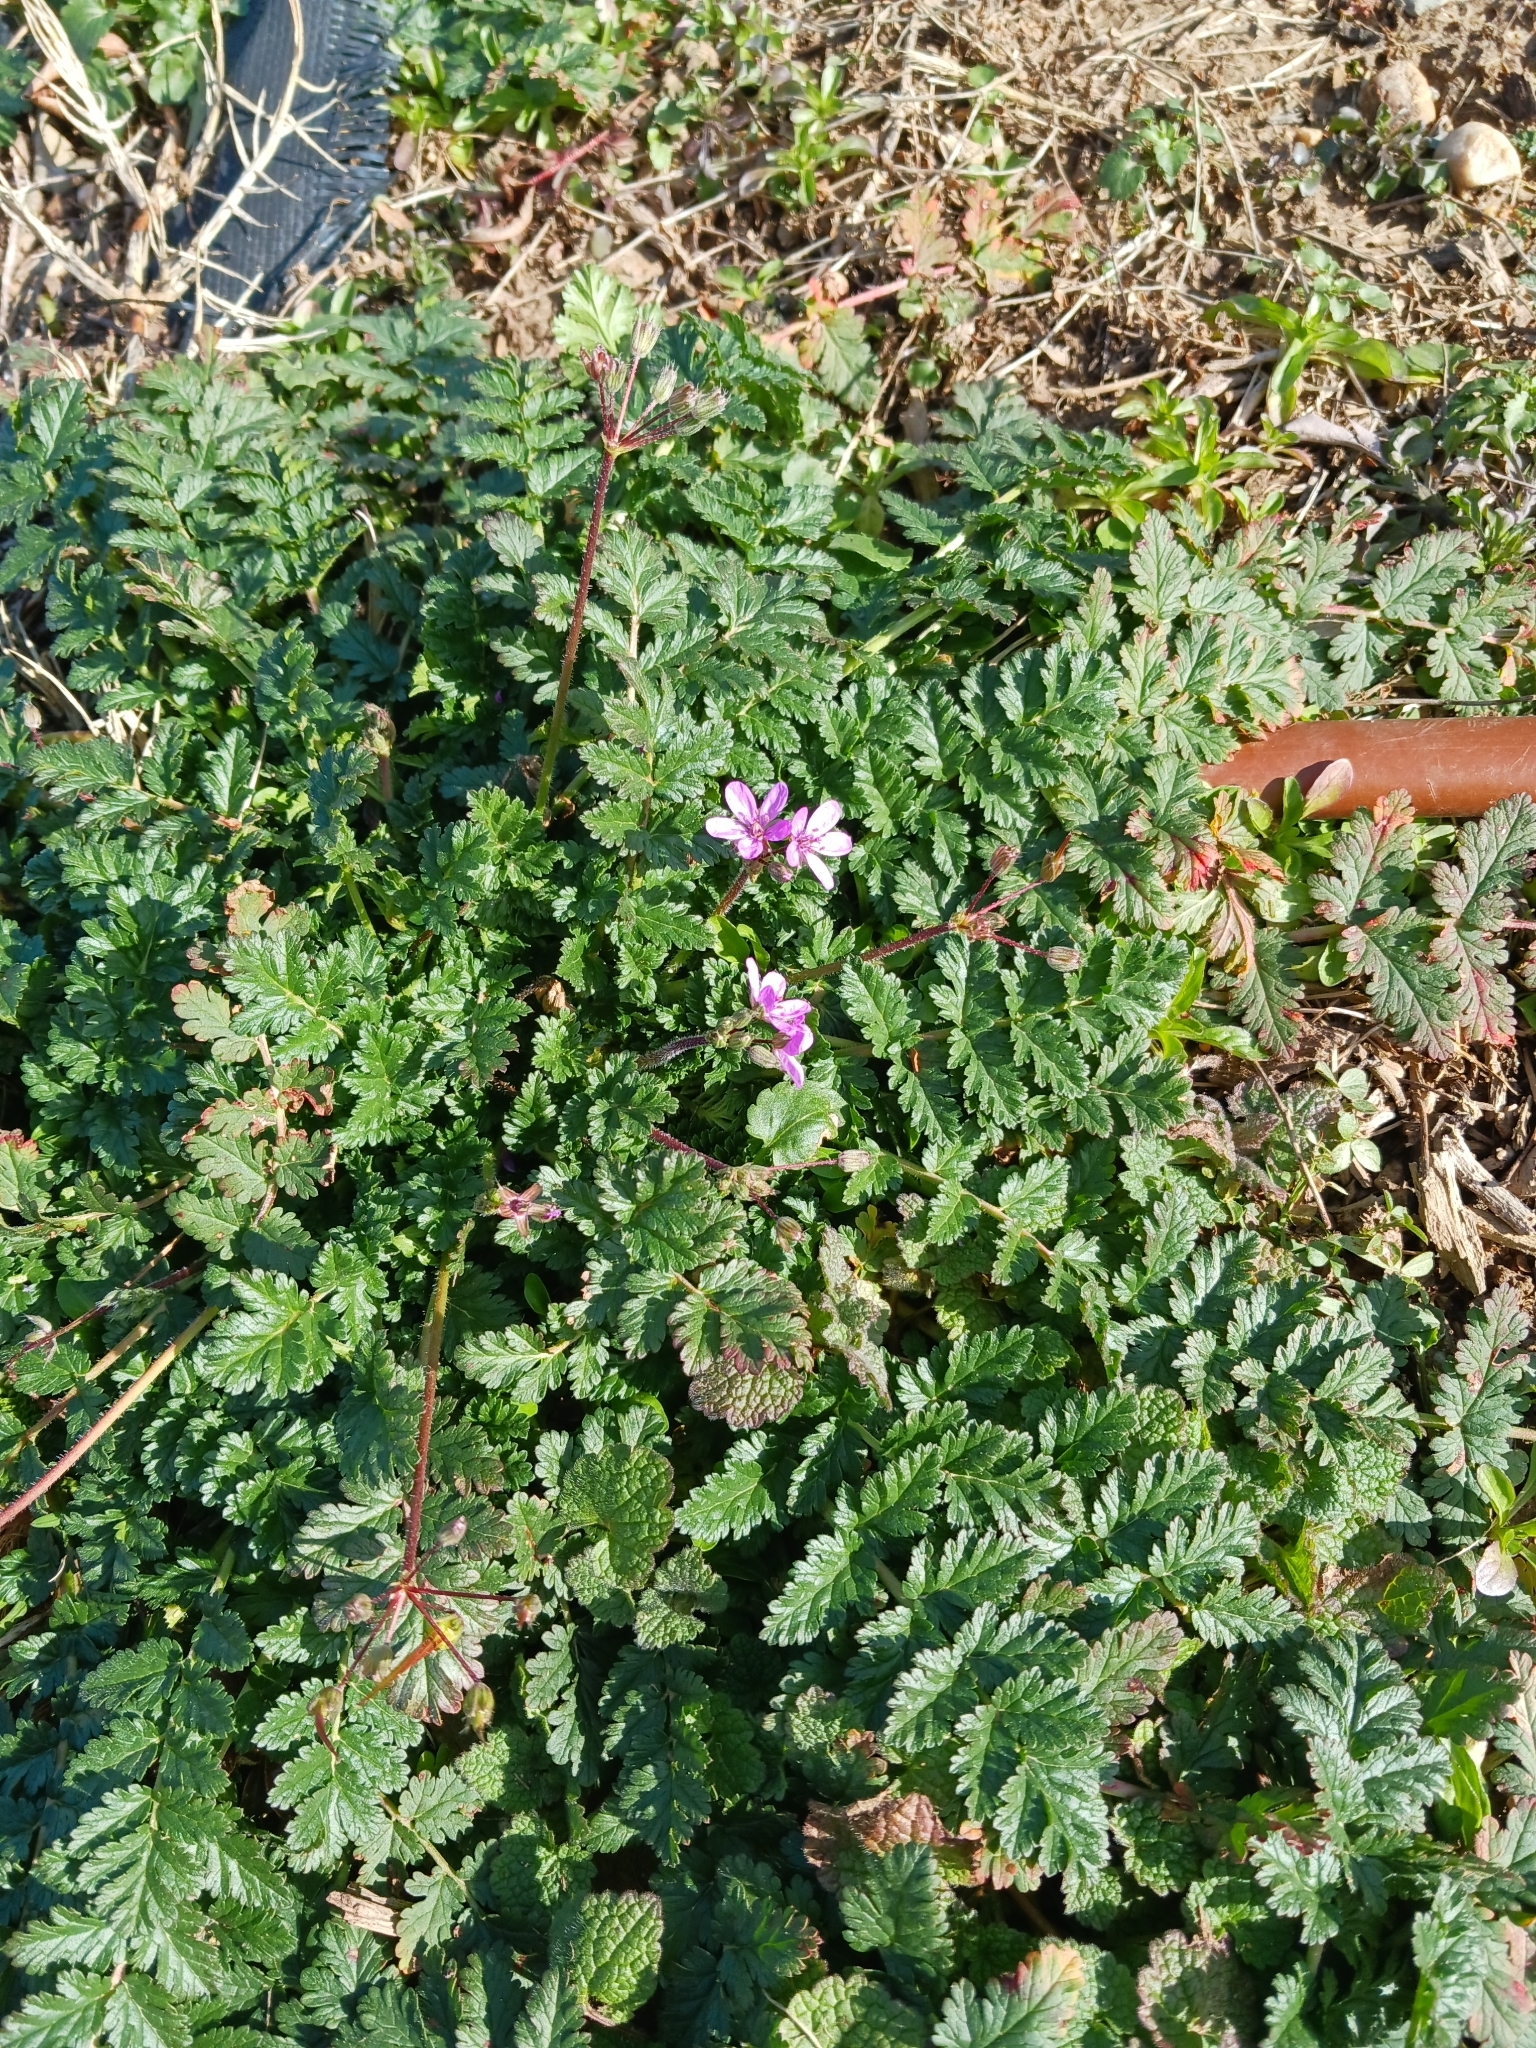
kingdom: Plantae
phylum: Tracheophyta
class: Magnoliopsida
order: Geraniales
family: Geraniaceae
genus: Erodium
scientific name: Erodium cicutarium
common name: Common stork's-bill
